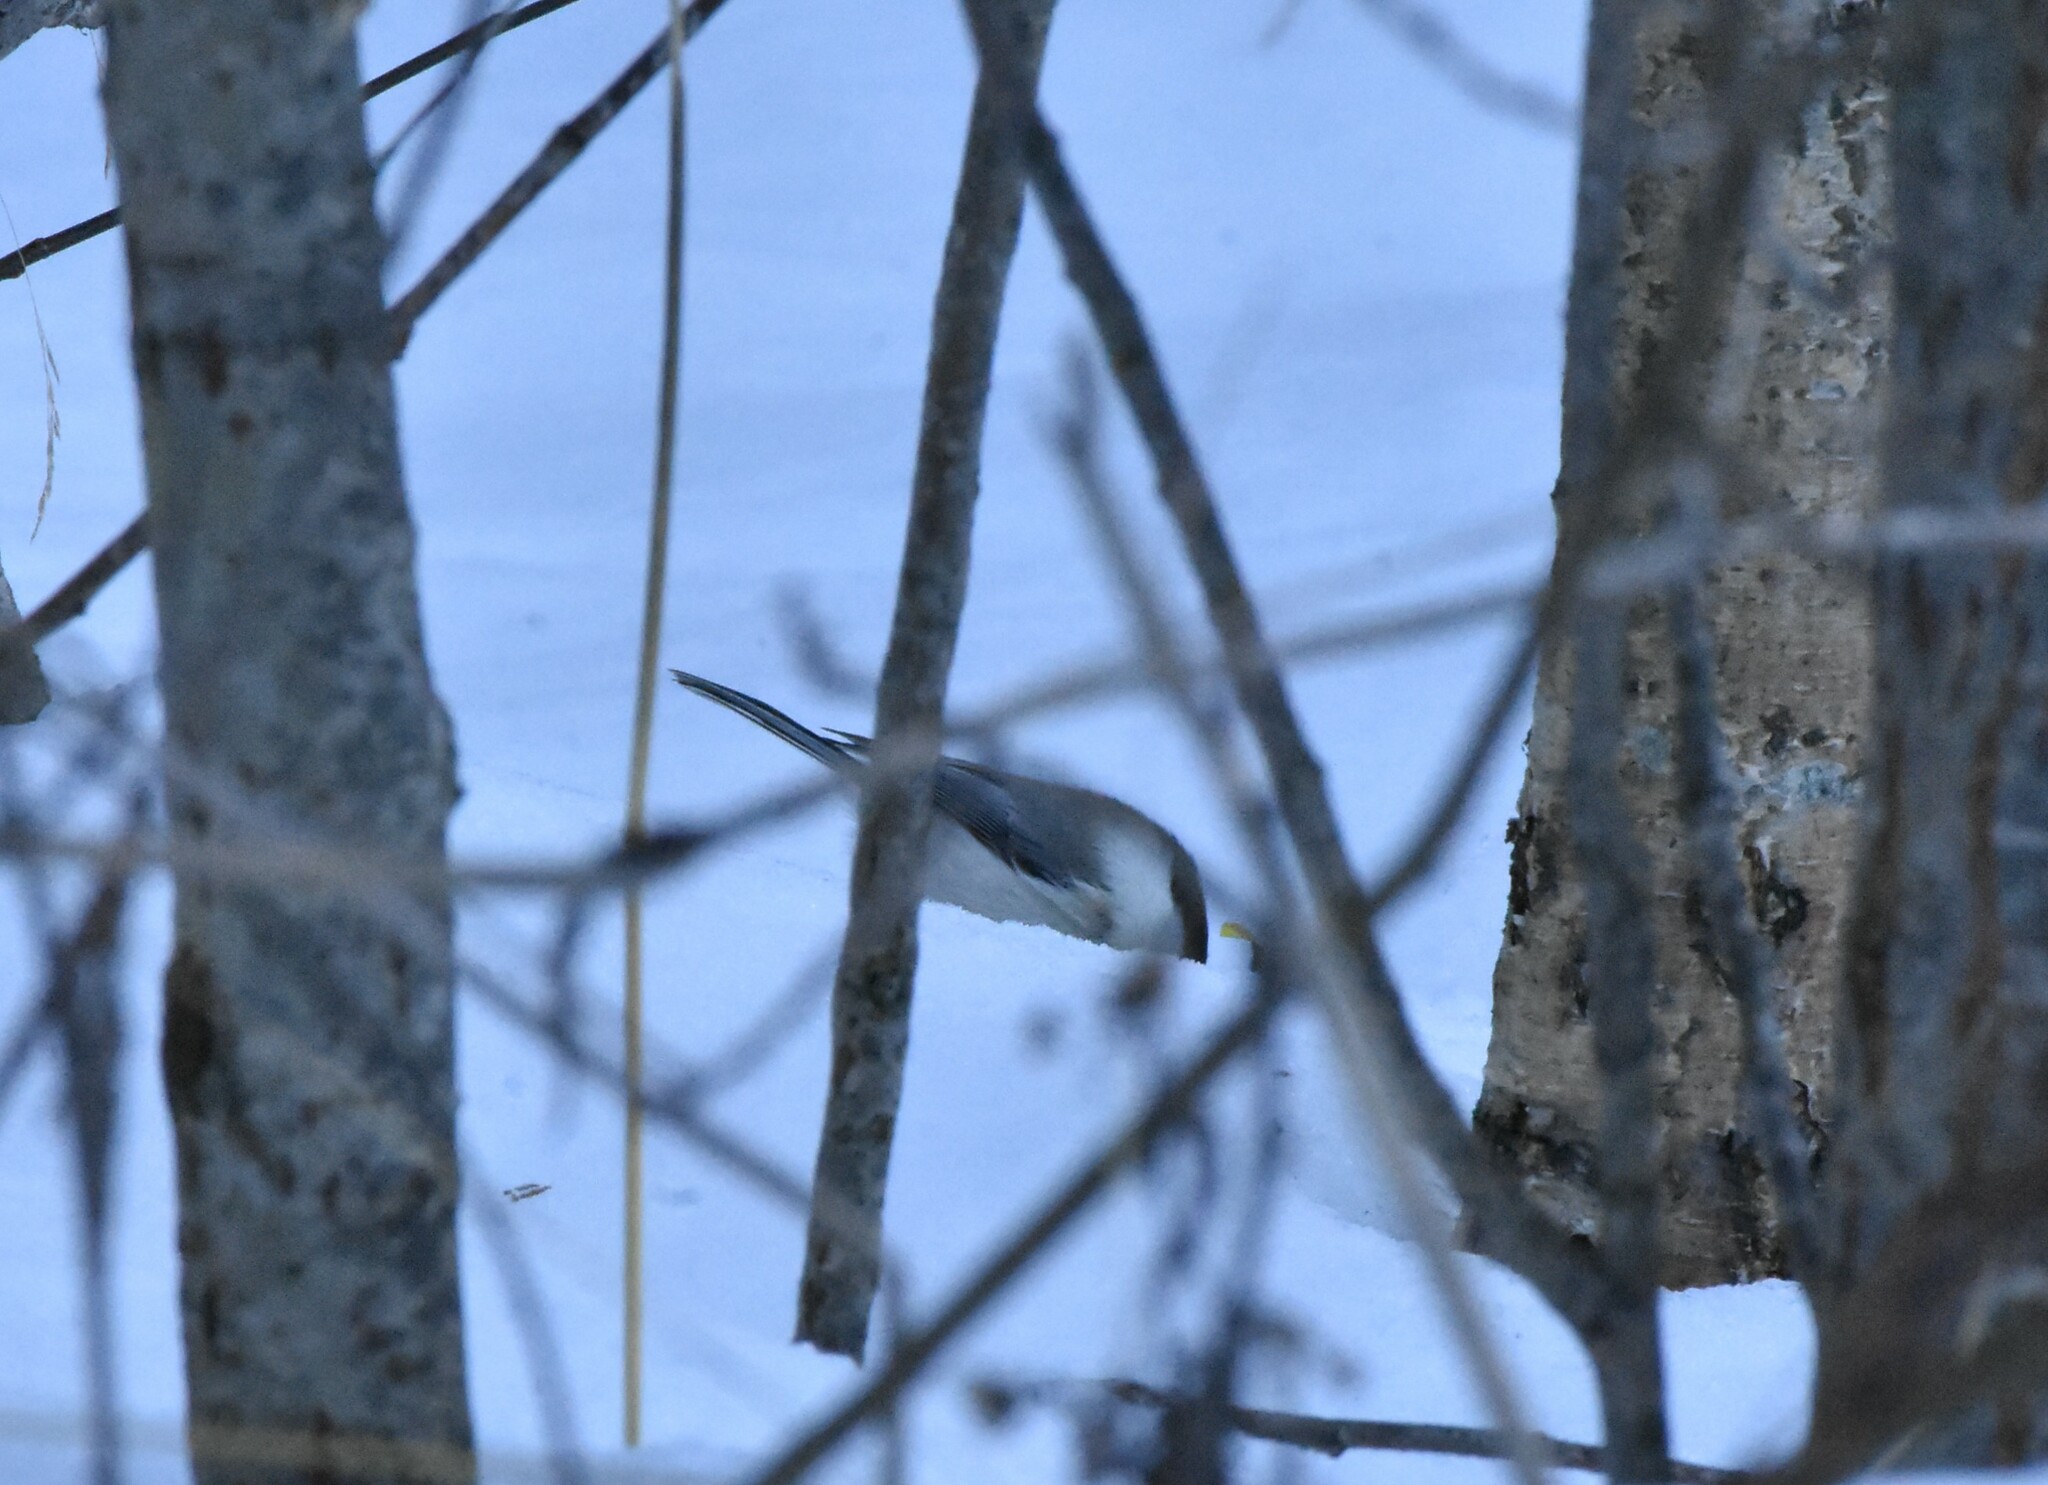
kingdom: Animalia
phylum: Chordata
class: Aves
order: Passeriformes
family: Paridae
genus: Poecile
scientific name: Poecile montanus
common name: Willow tit
